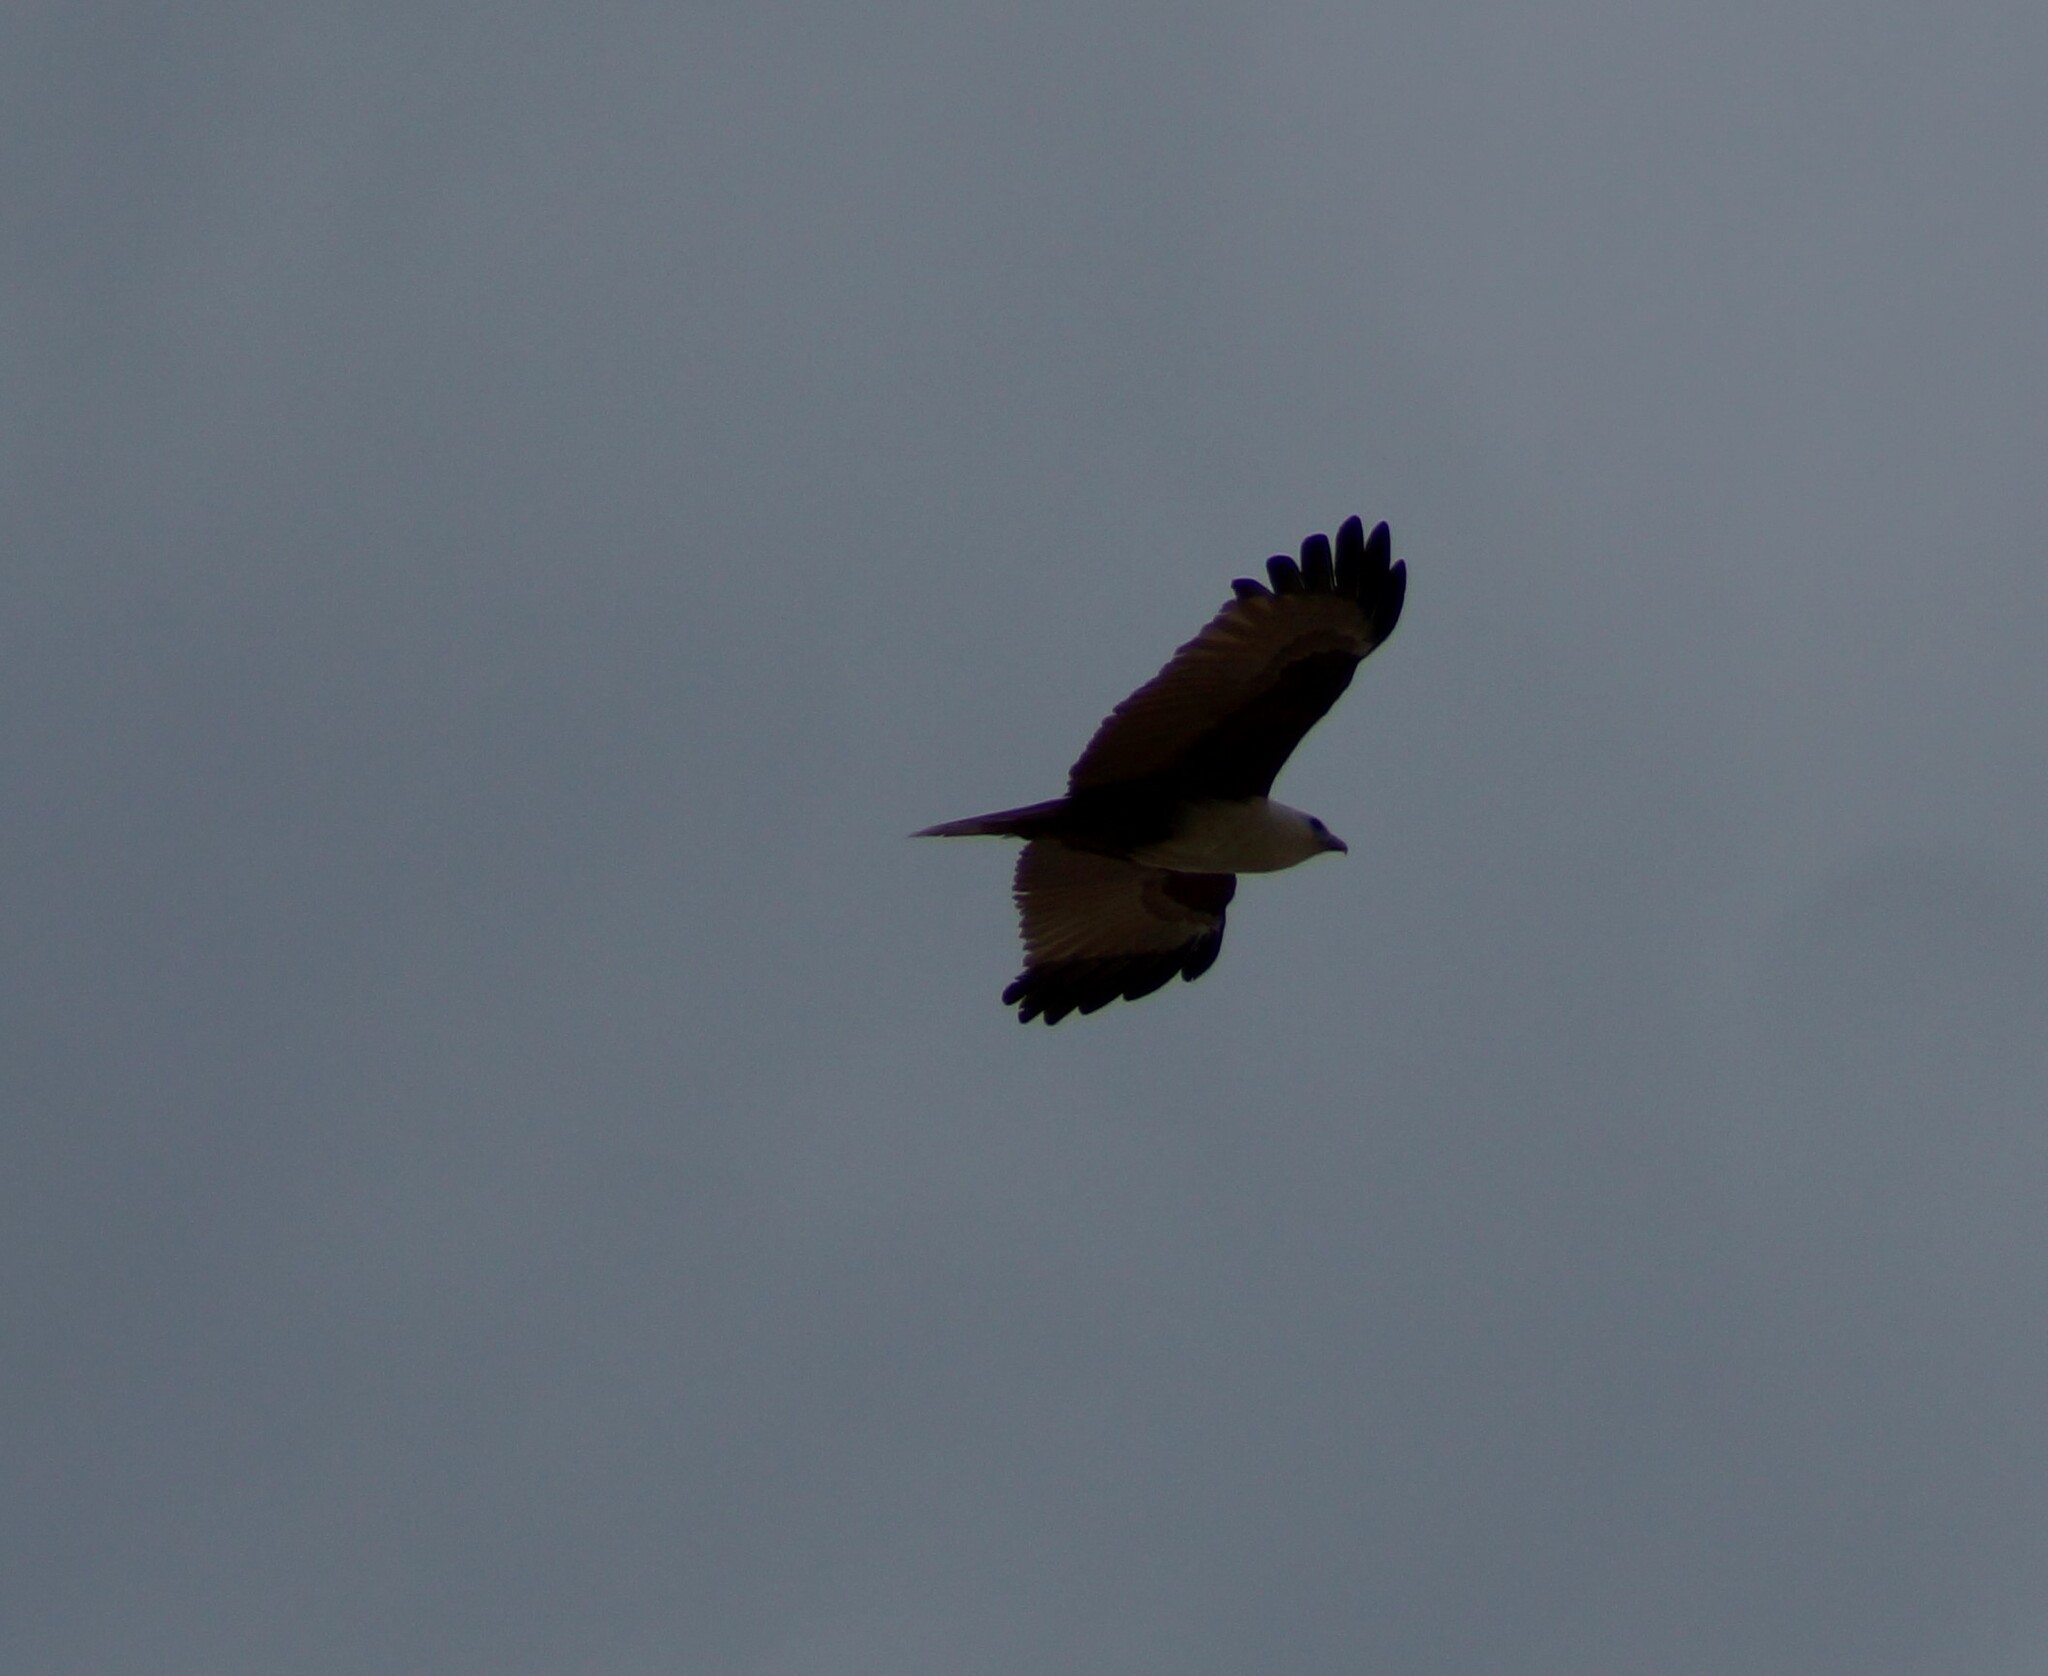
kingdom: Animalia
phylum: Chordata
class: Aves
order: Accipitriformes
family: Accipitridae
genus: Haliastur
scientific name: Haliastur indus
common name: Brahminy kite
